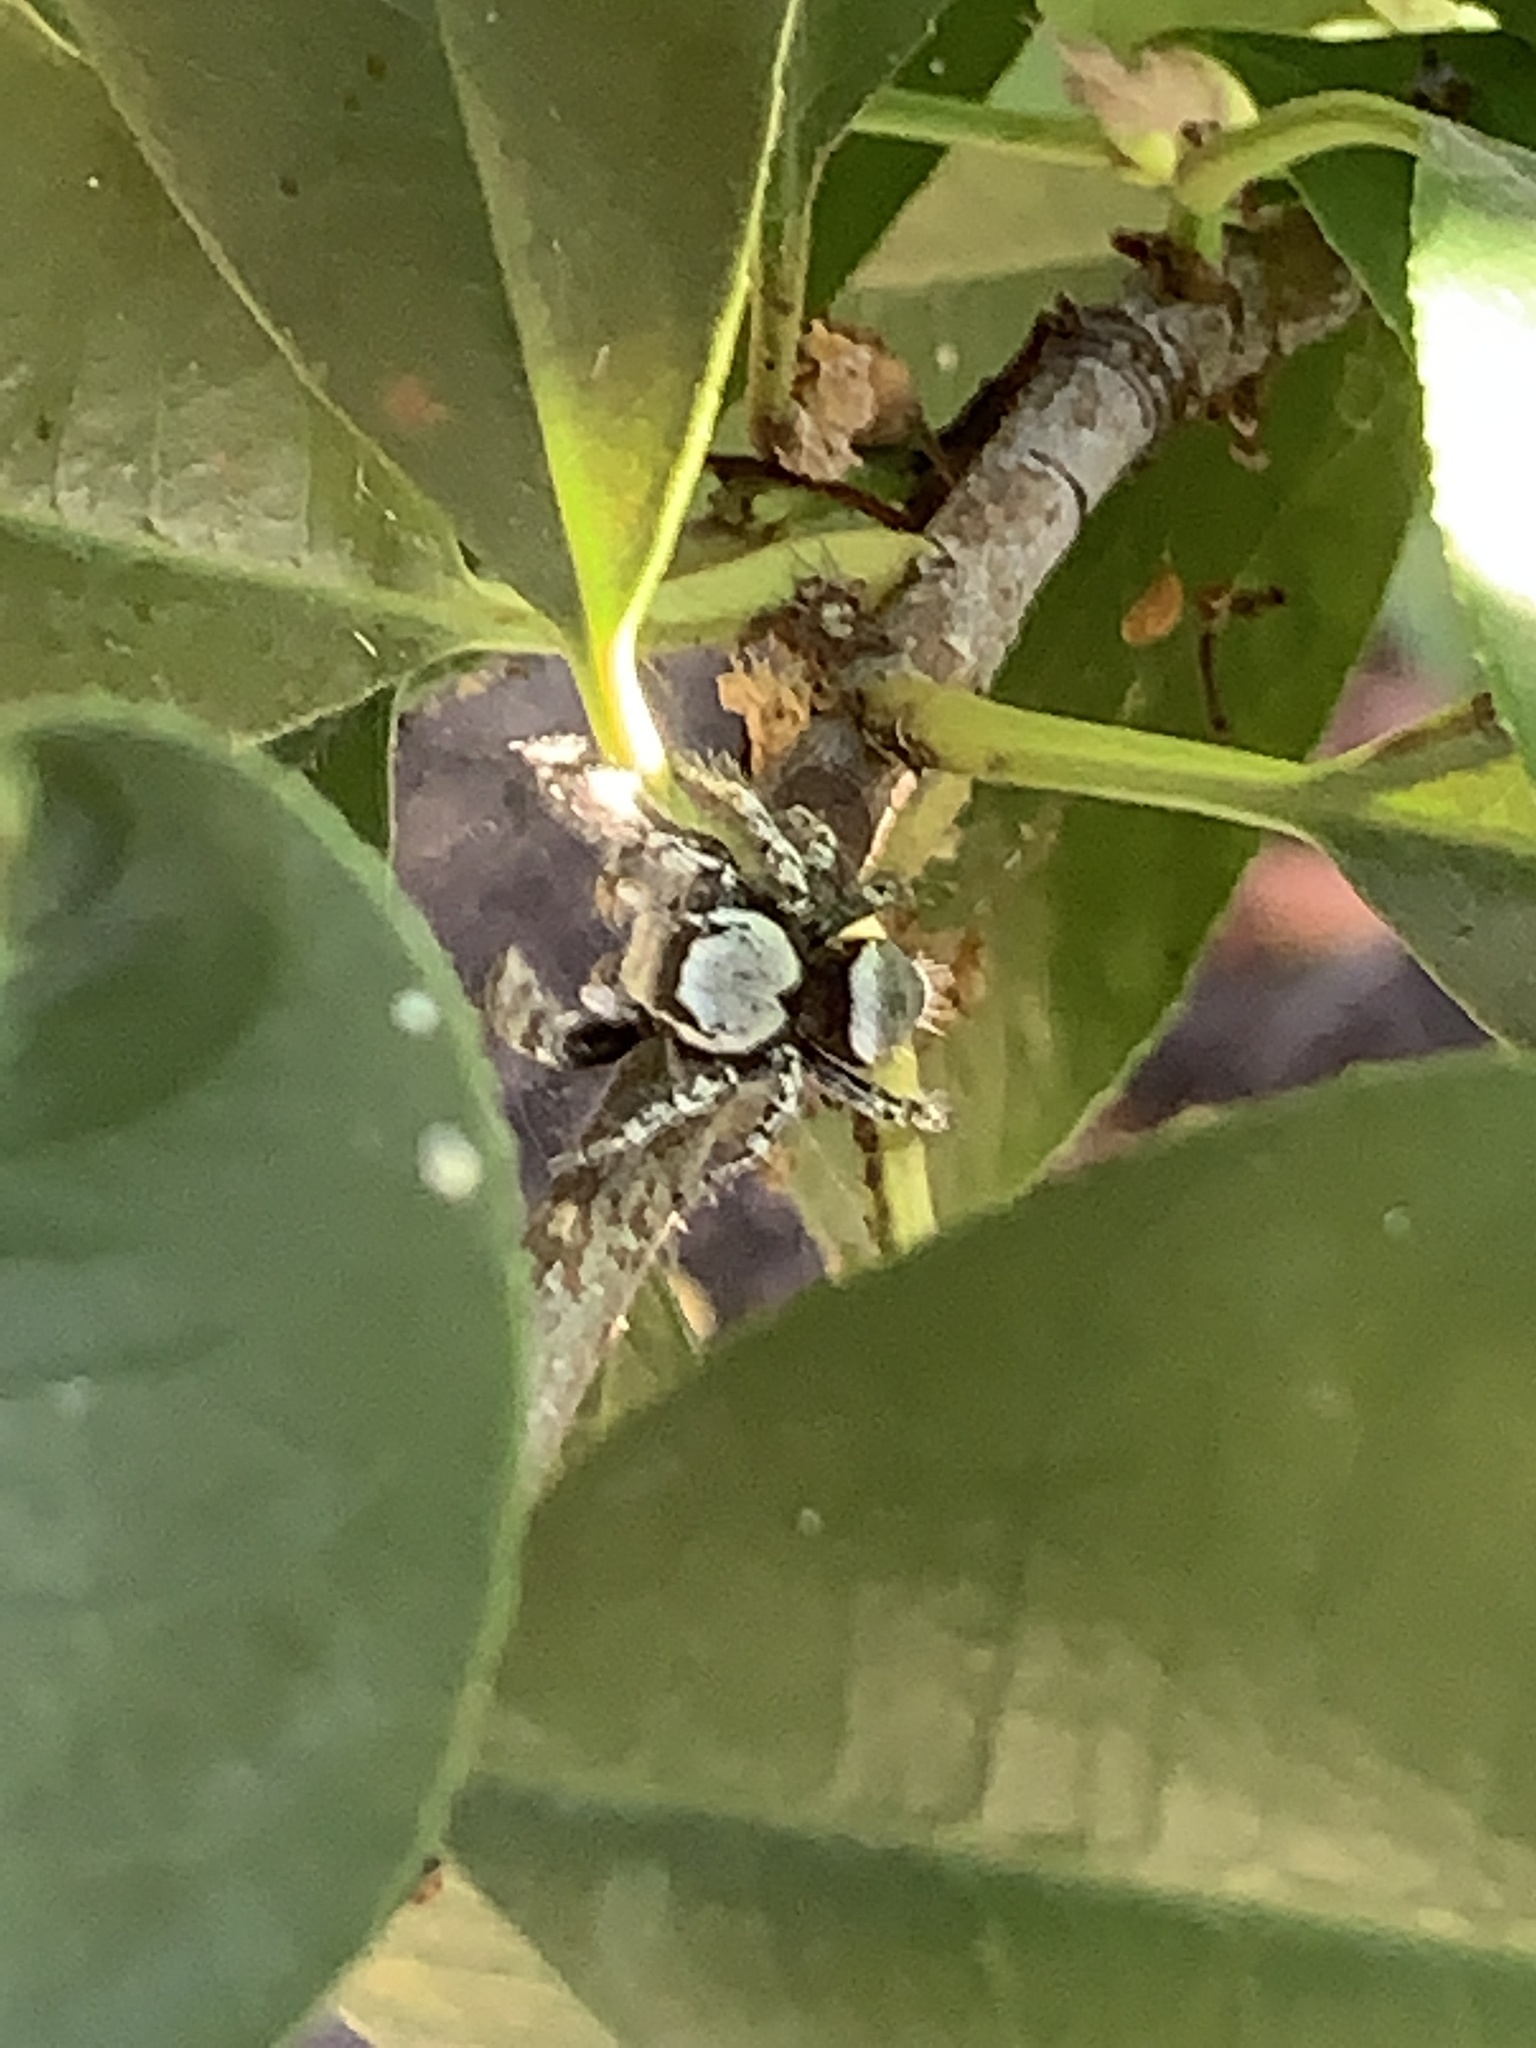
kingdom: Animalia
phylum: Arthropoda
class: Arachnida
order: Araneae
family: Salticidae
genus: Phidippus
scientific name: Phidippus carolinensis
